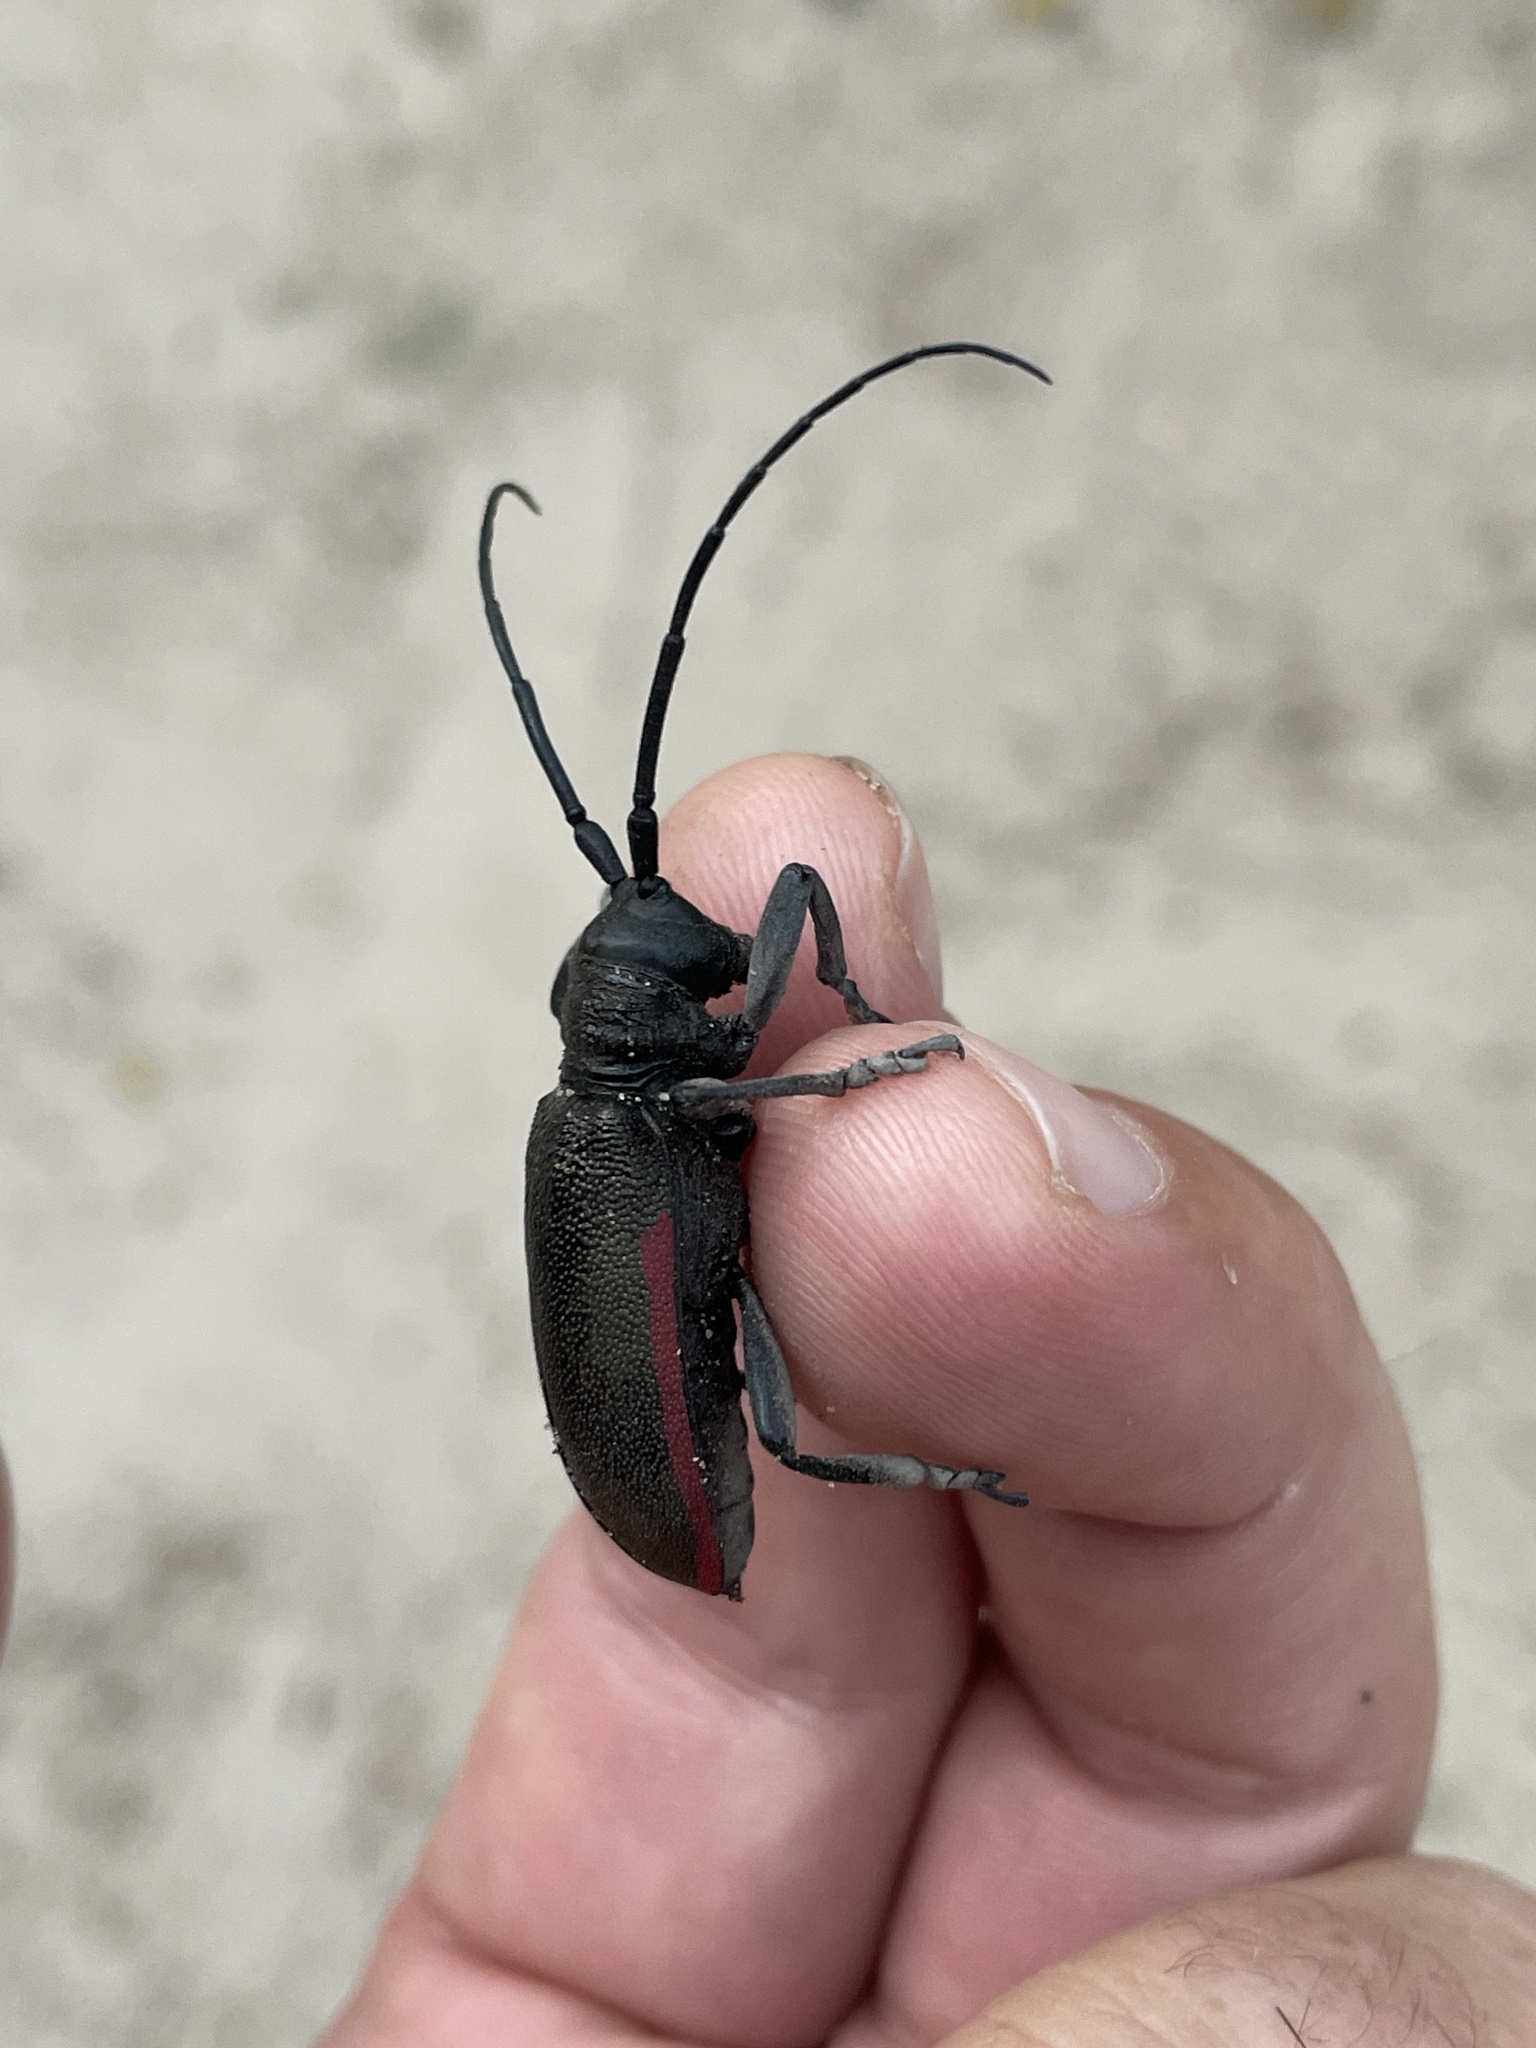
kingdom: Animalia
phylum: Arthropoda
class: Insecta
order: Coleoptera
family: Cerambycidae
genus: Ceroplesis
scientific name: Ceroplesis ferrugator
